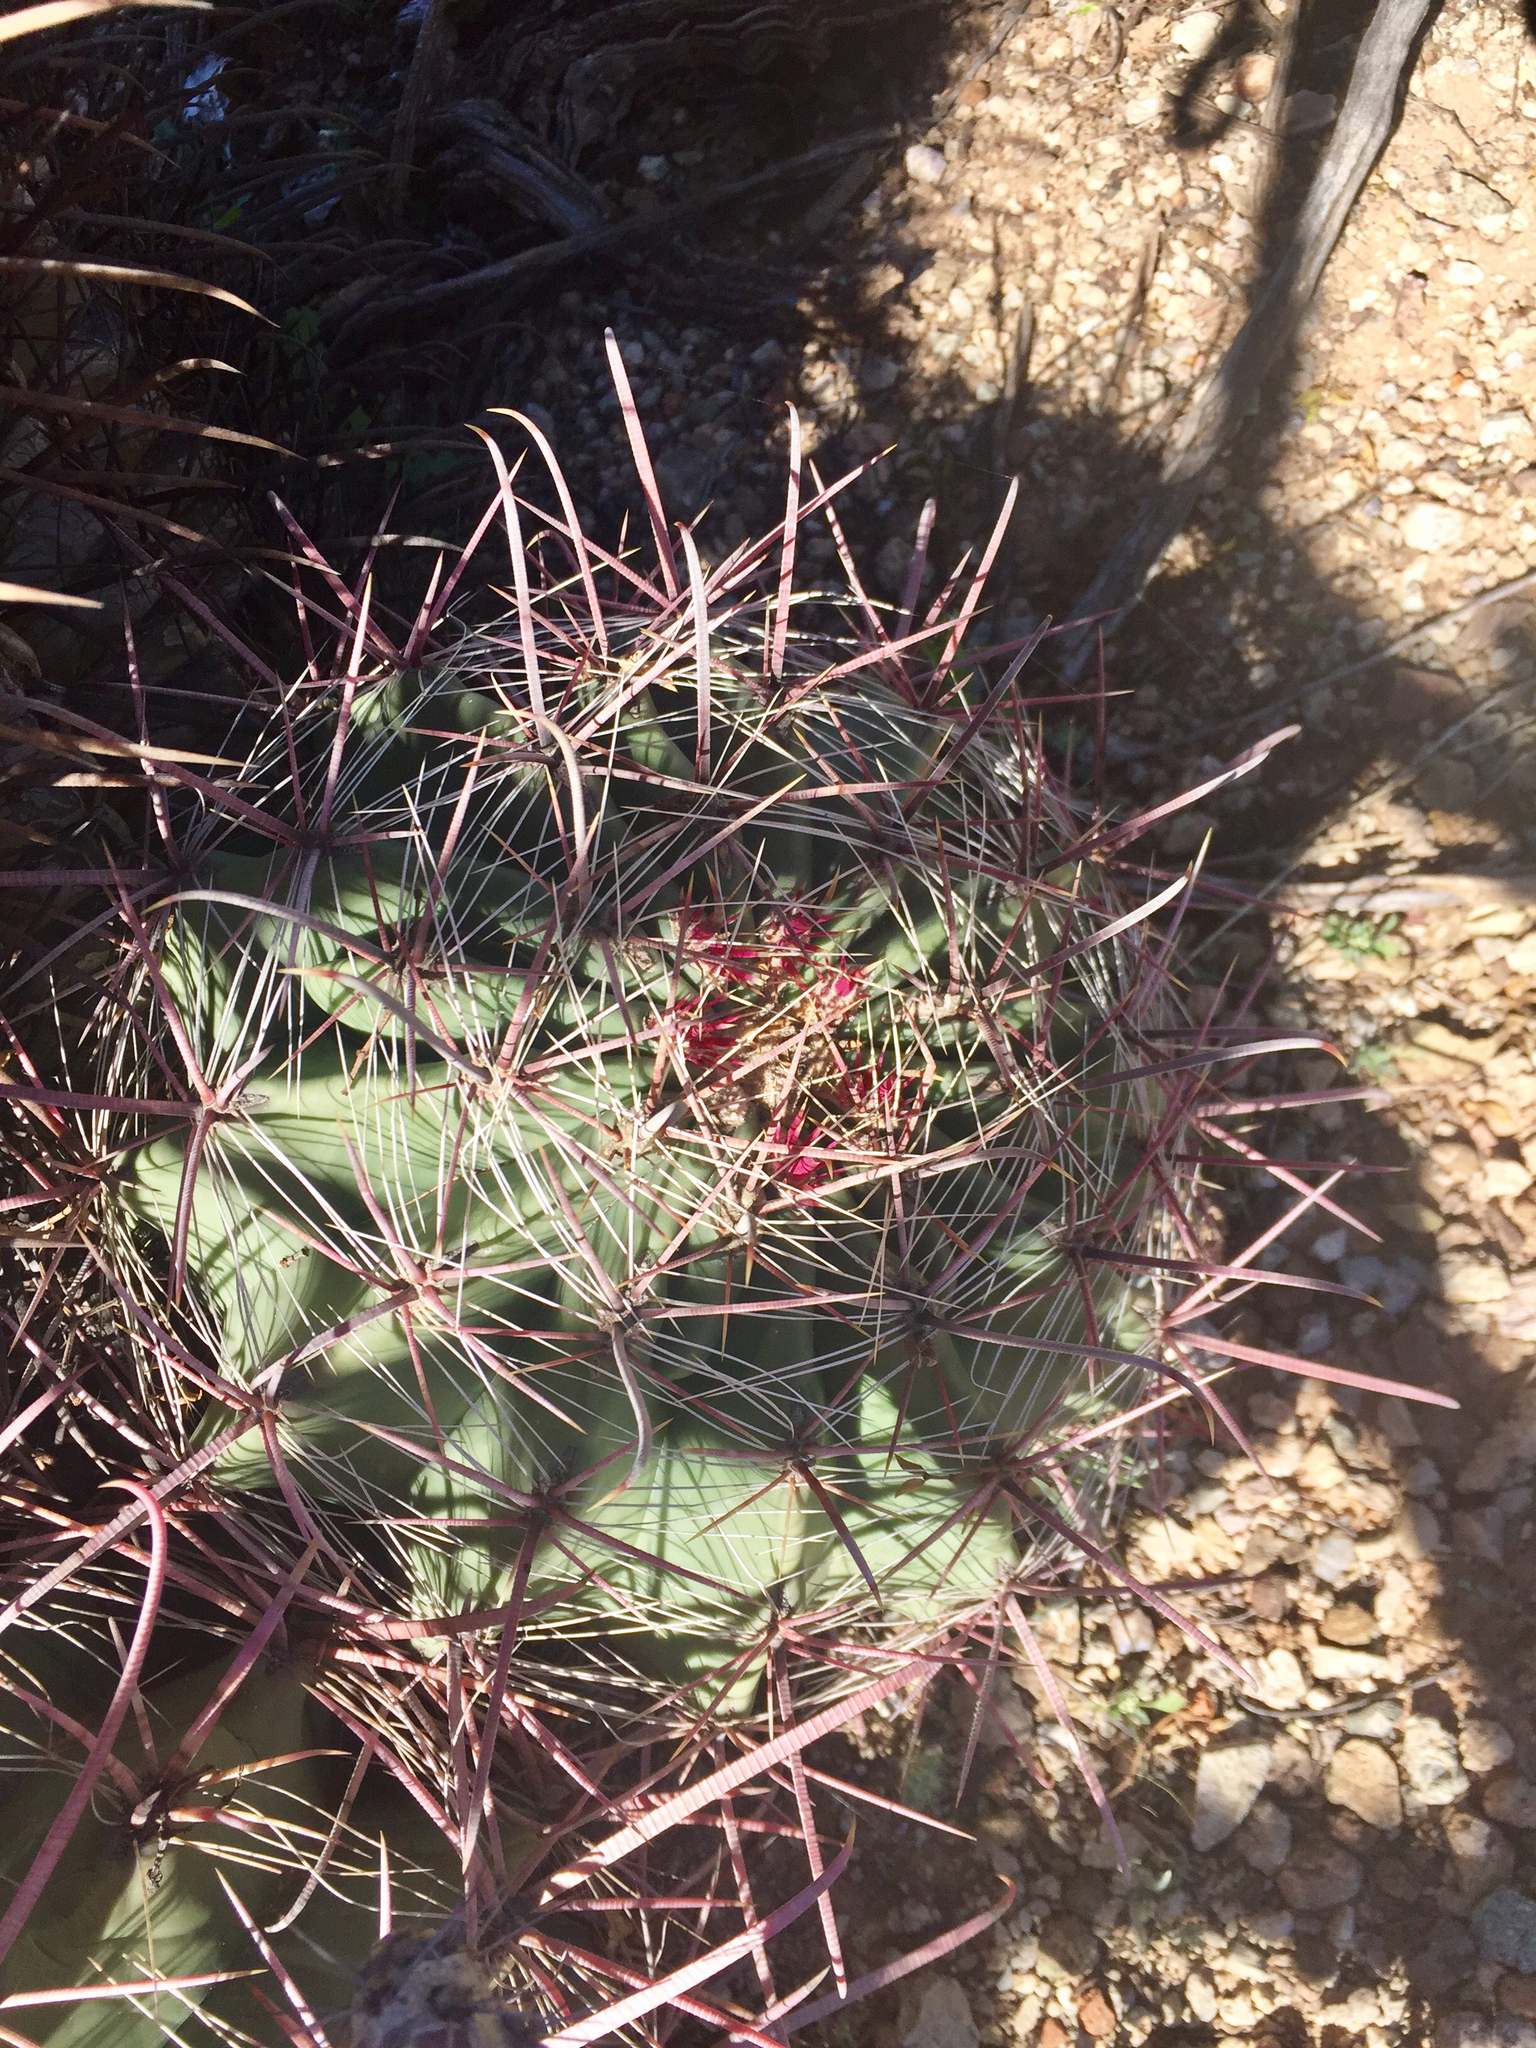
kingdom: Plantae
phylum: Tracheophyta
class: Magnoliopsida
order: Caryophyllales
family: Cactaceae
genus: Ferocactus
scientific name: Ferocactus wislizeni
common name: Candy barrel cactus
